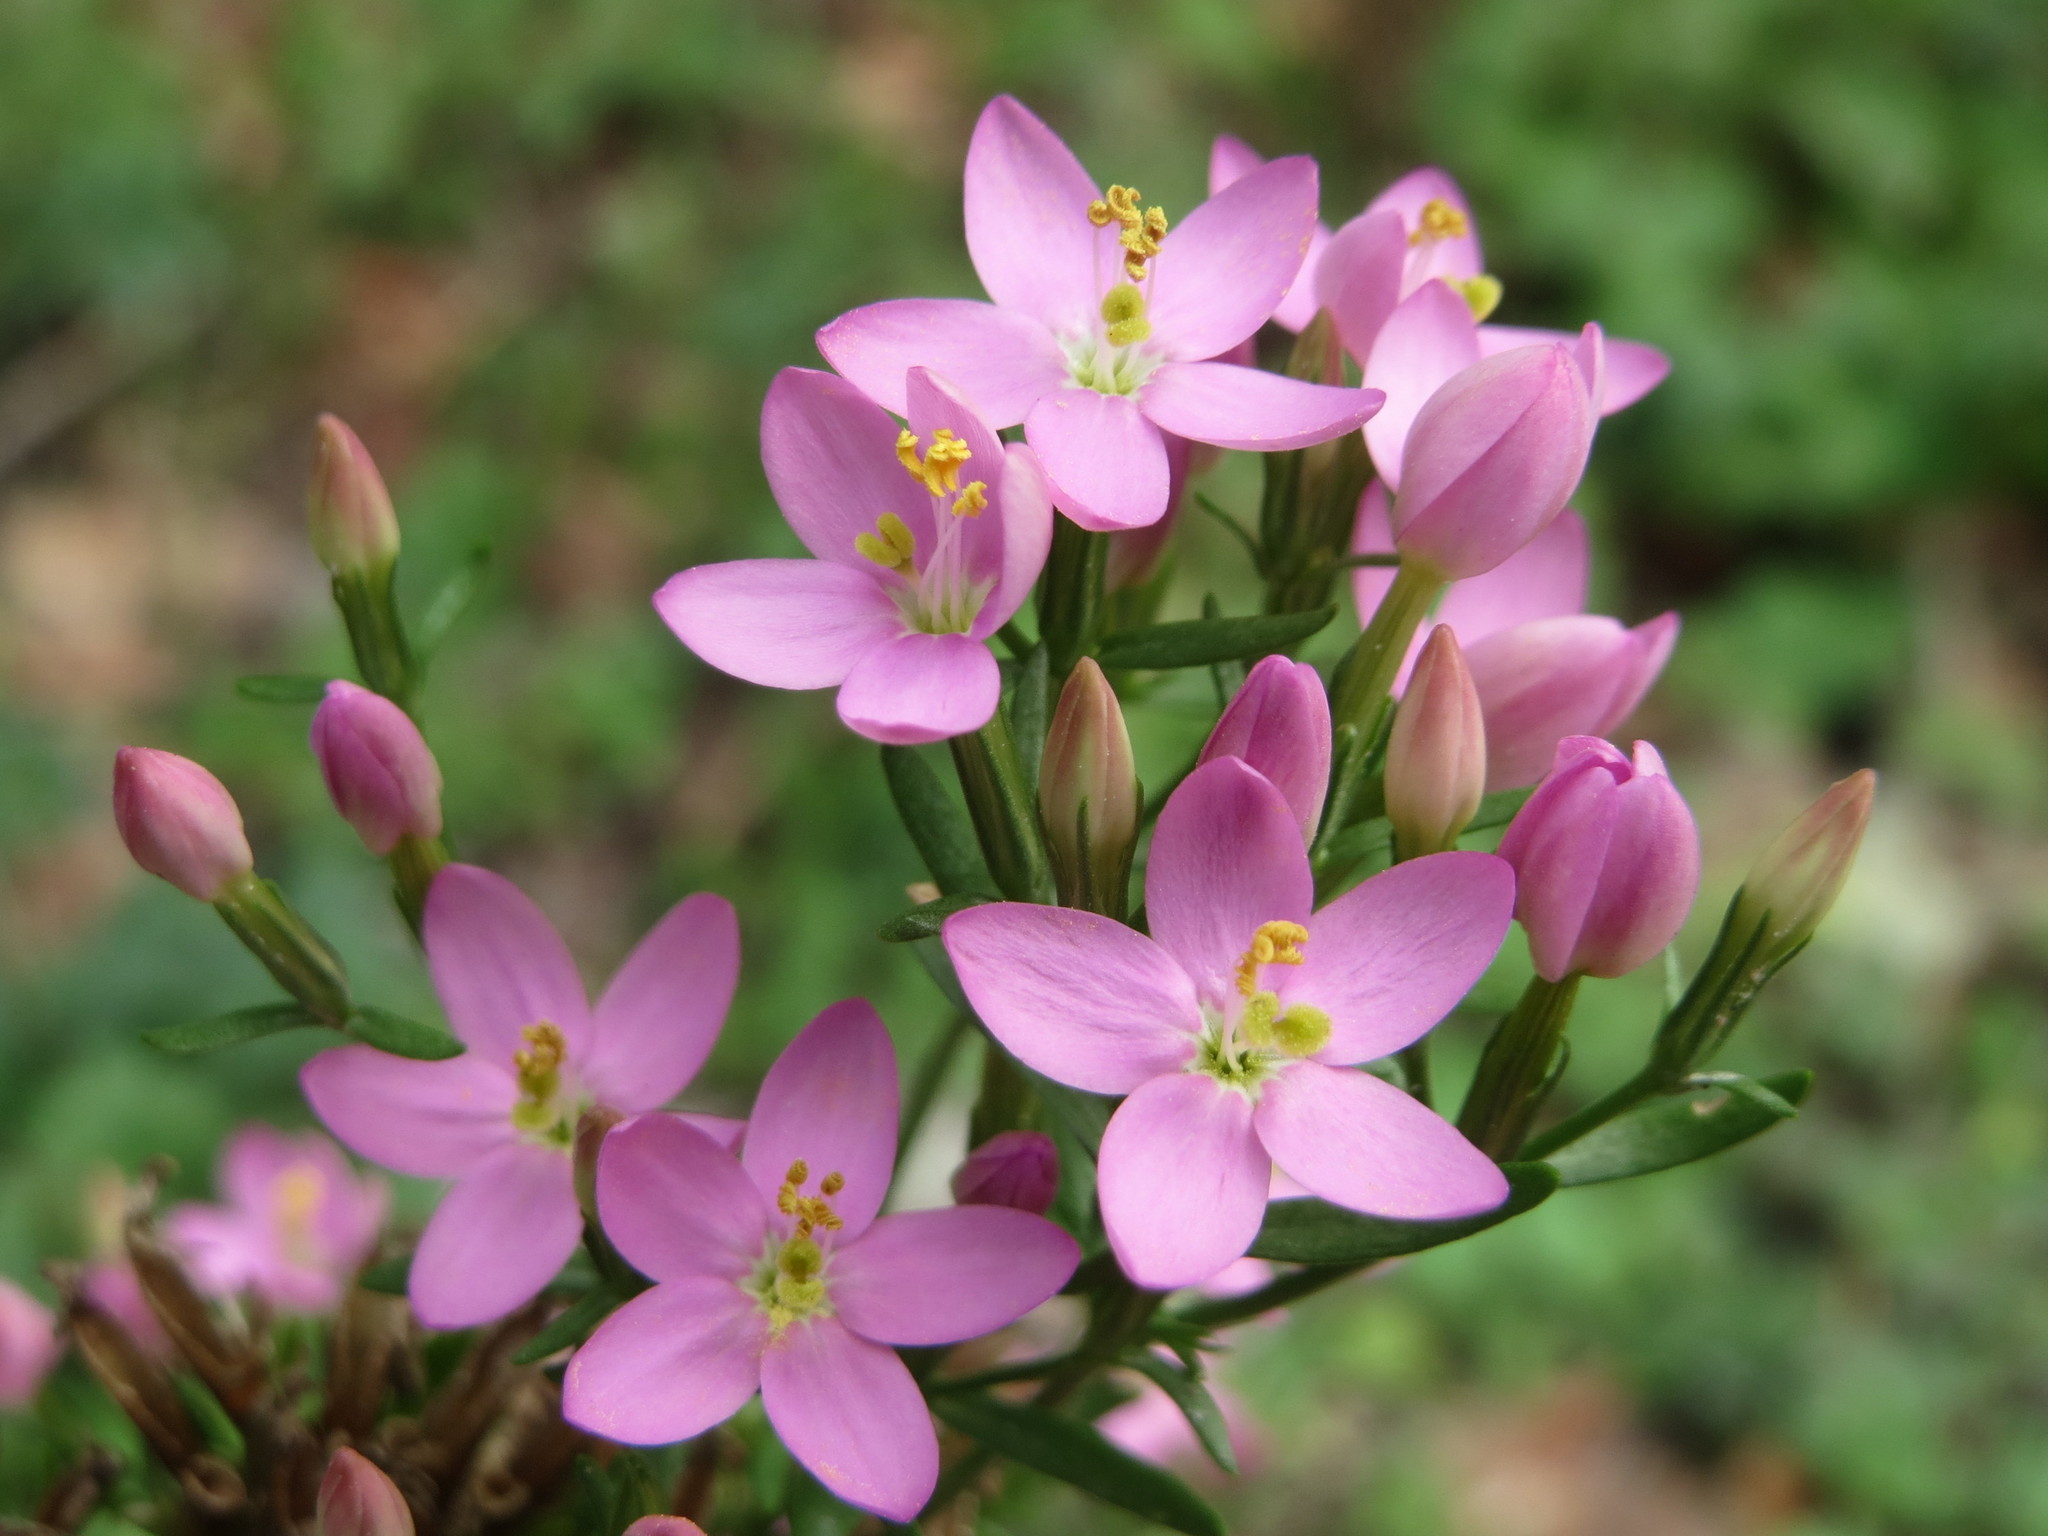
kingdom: Plantae
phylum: Tracheophyta
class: Magnoliopsida
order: Gentianales
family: Gentianaceae
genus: Centaurium
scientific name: Centaurium erythraea
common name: Common centaury
